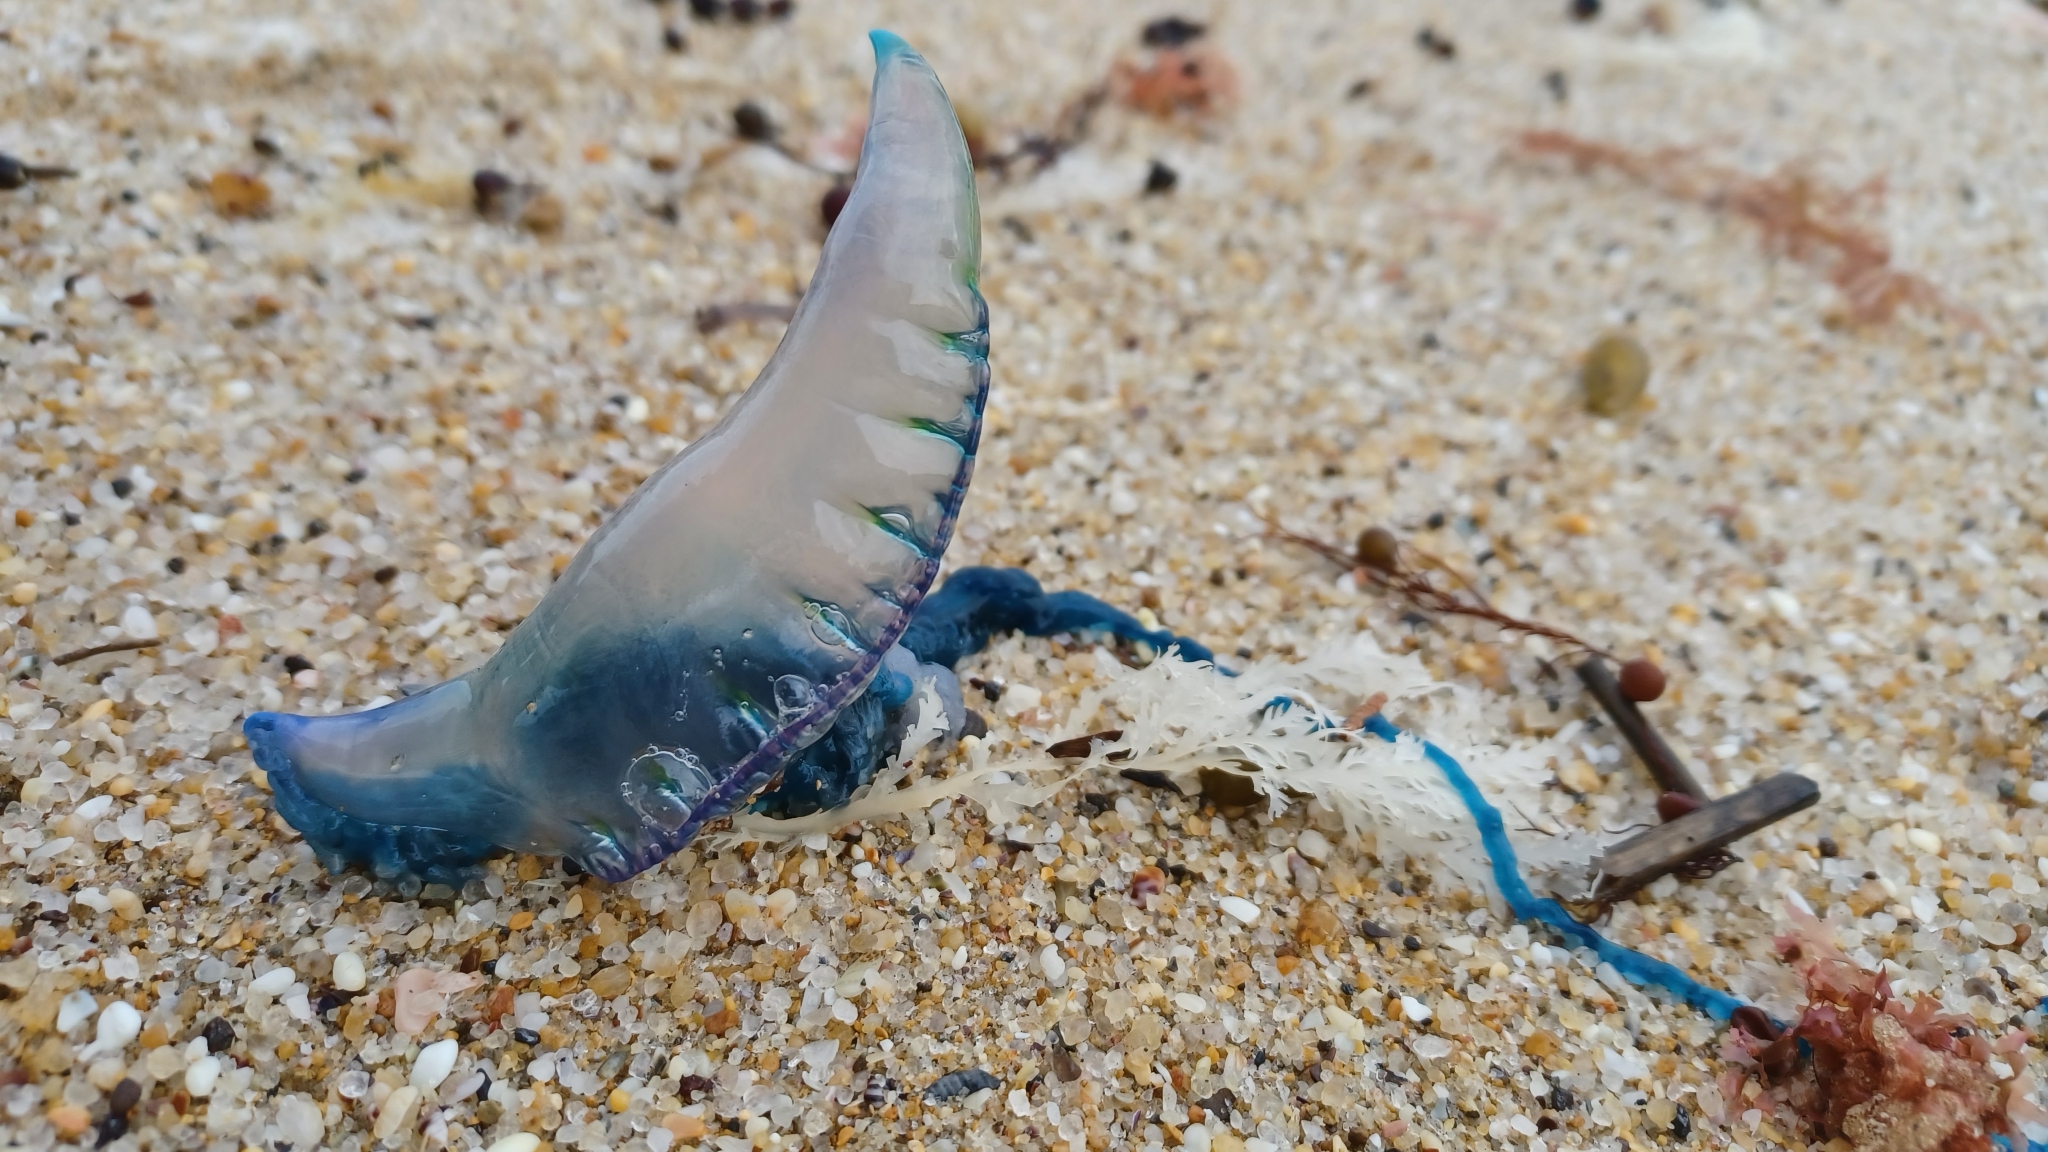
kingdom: Animalia
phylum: Cnidaria
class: Hydrozoa
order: Siphonophorae
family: Physaliidae
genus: Physalia
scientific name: Physalia physalis
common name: Portuguese man-of-war
